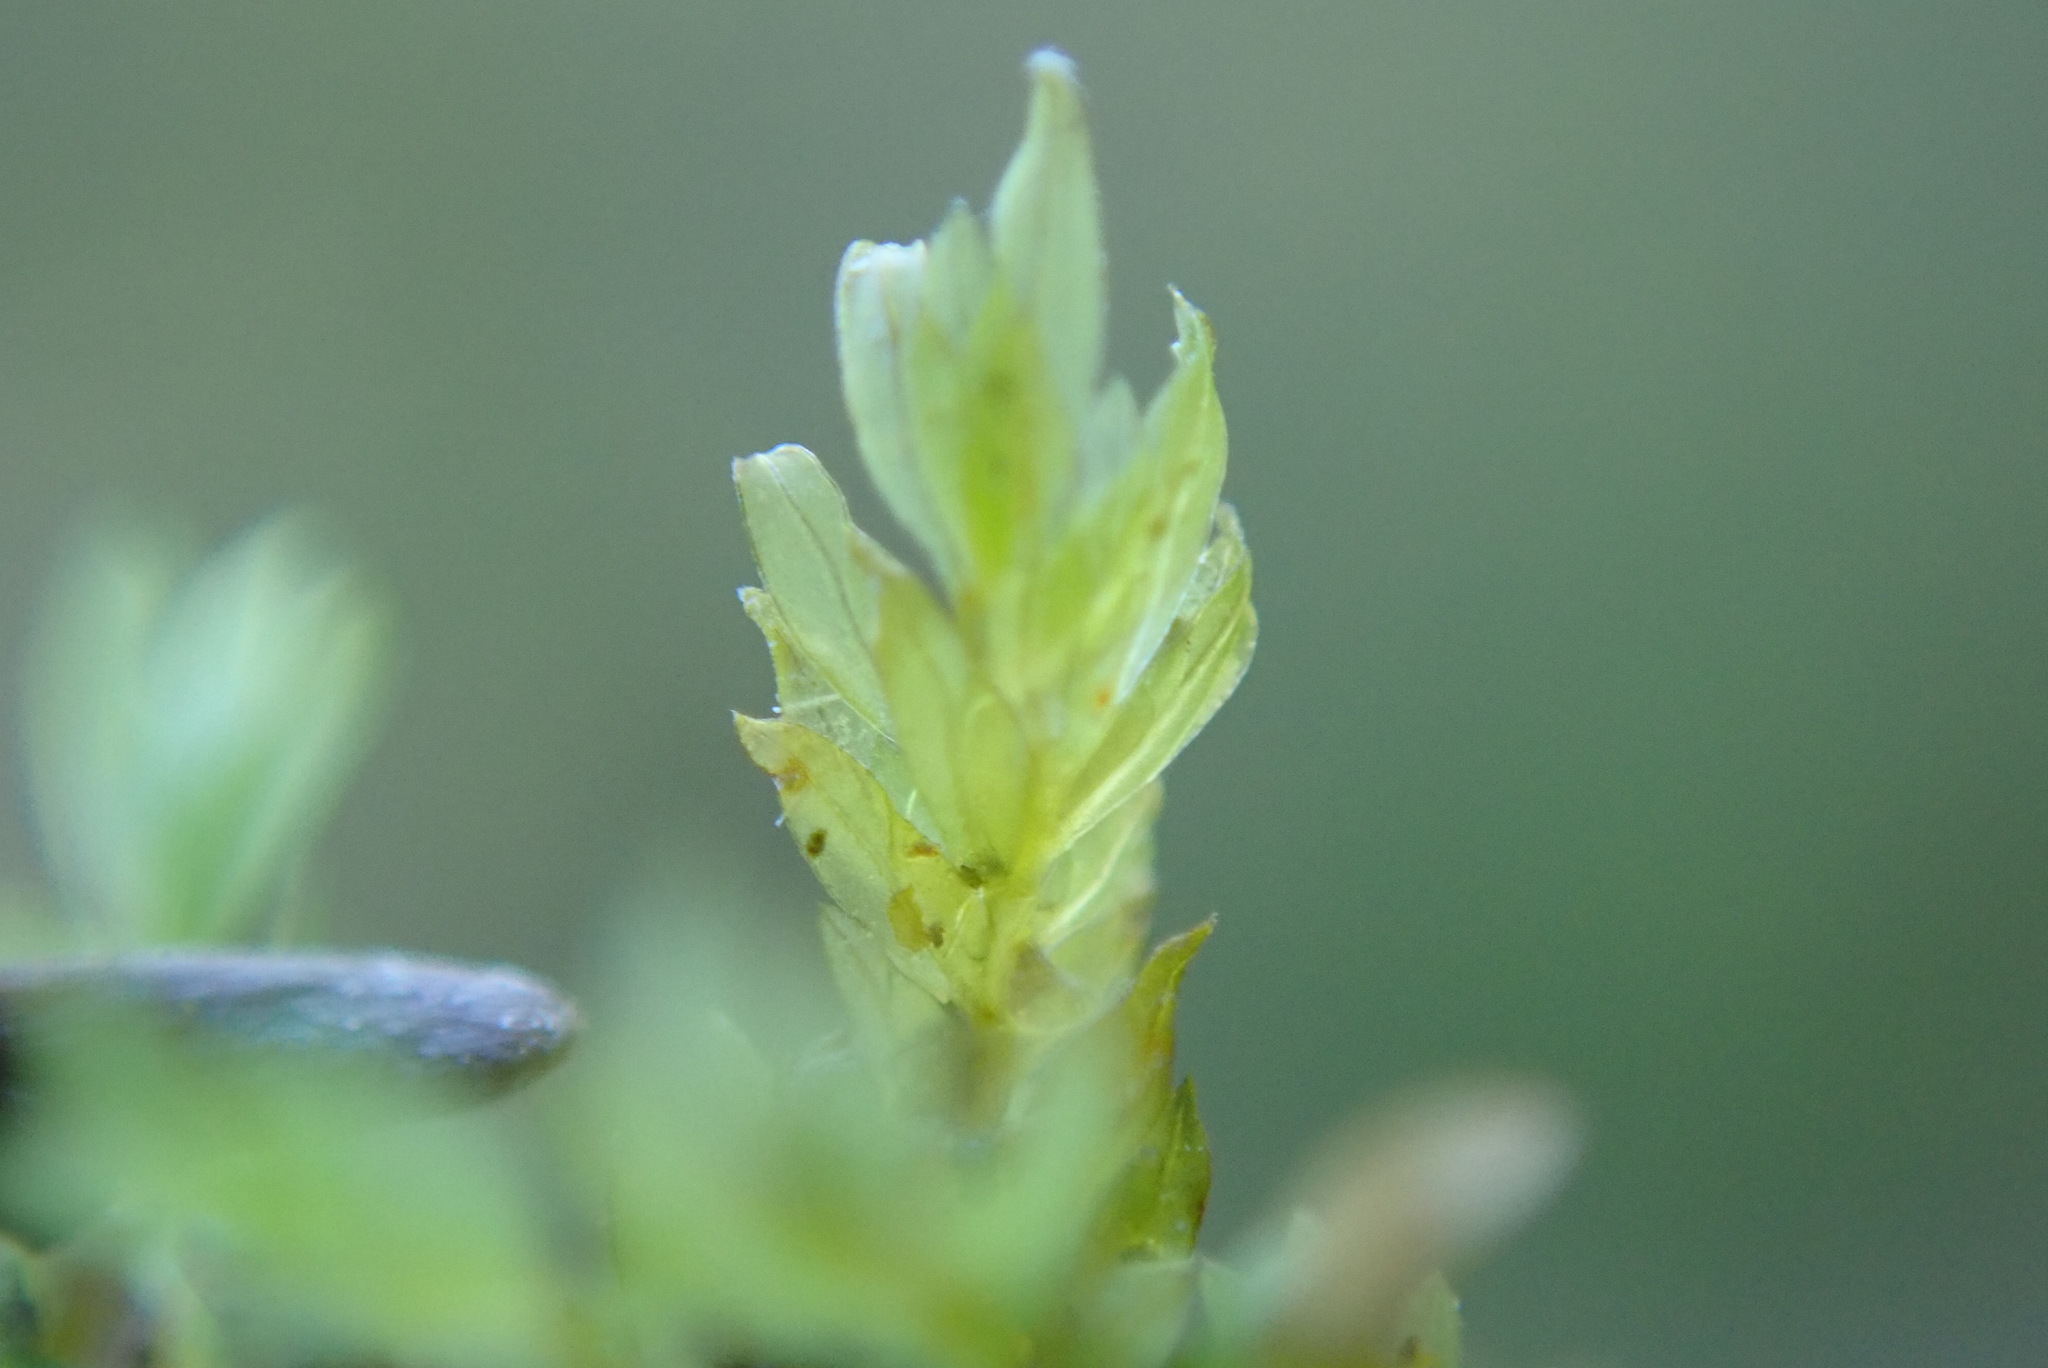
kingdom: Plantae
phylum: Bryophyta
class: Bryopsida
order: Dicranales
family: Fissidentaceae
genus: Fissidens
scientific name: Fissidens crispus
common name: Herzog's pocket-moss
